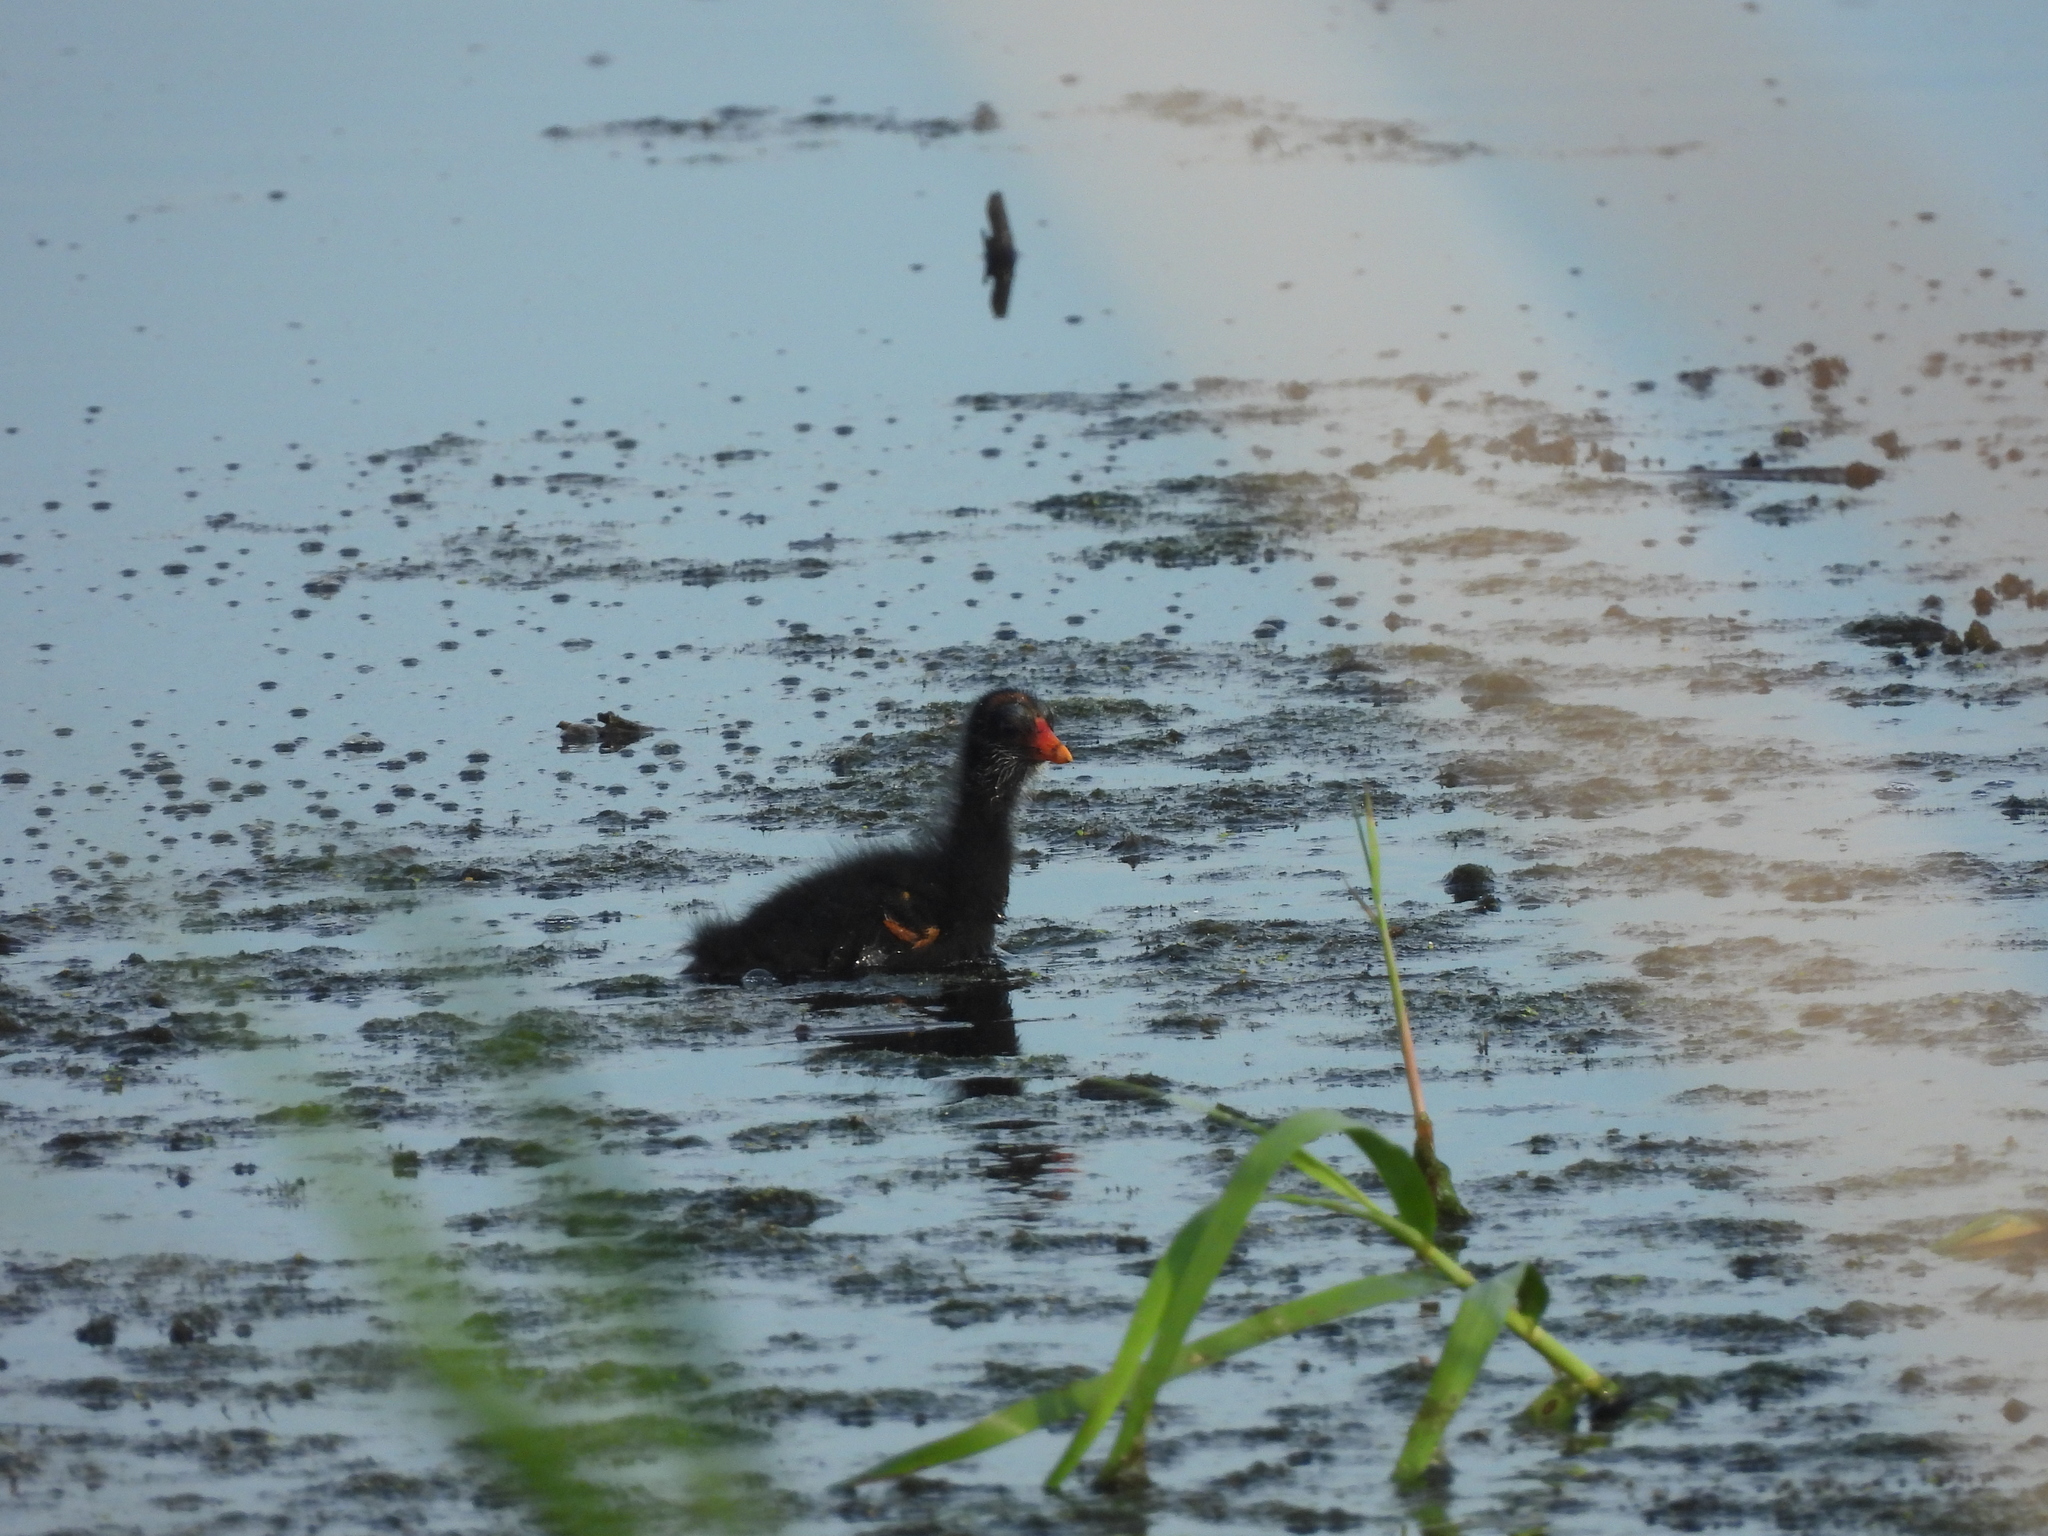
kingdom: Animalia
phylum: Chordata
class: Aves
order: Gruiformes
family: Rallidae
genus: Gallinula
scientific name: Gallinula chloropus
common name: Common moorhen
